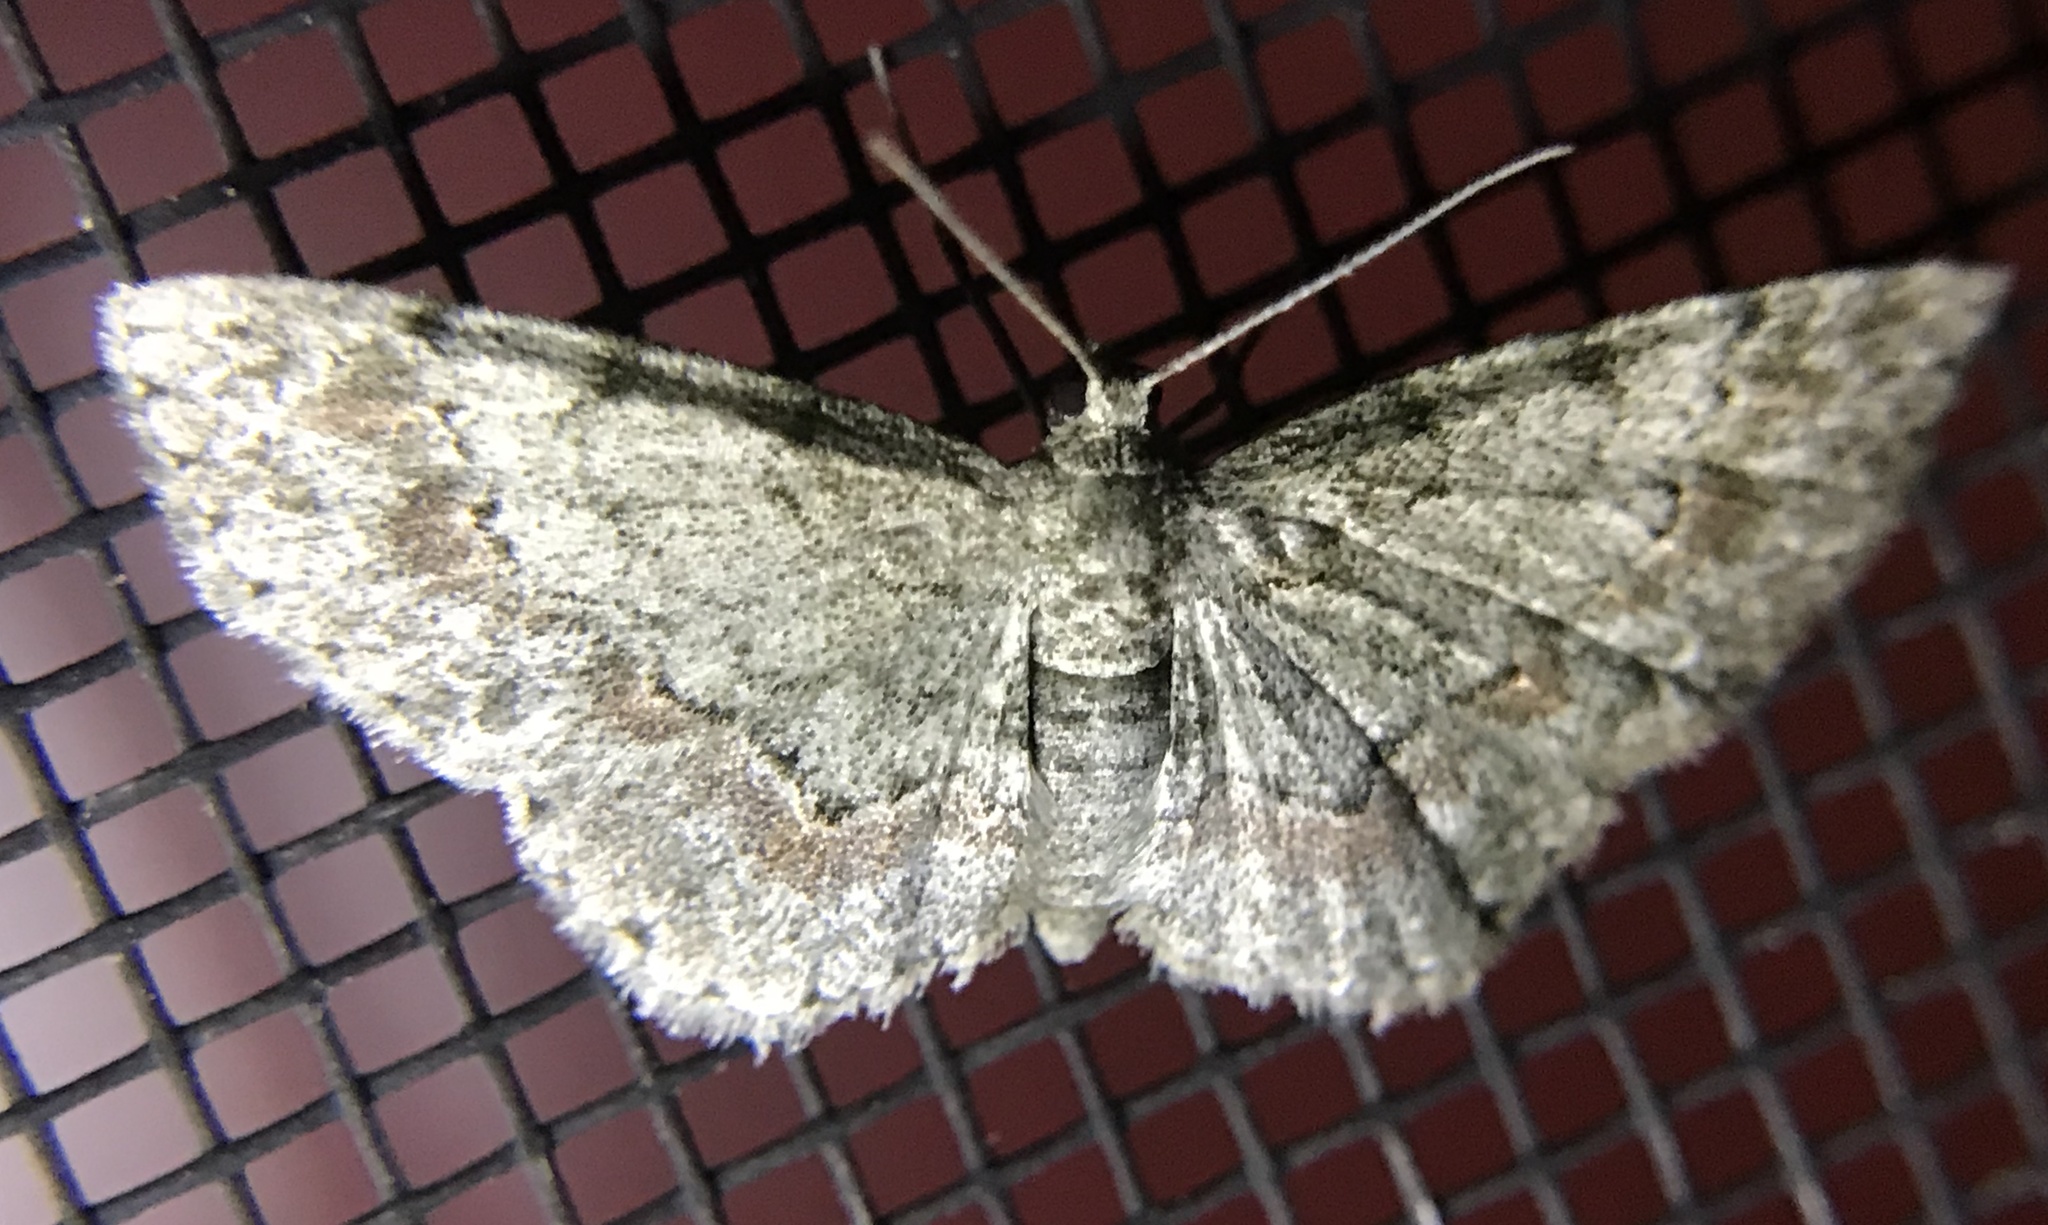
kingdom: Animalia
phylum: Arthropoda
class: Insecta
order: Lepidoptera
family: Geometridae
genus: Glenoides
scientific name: Glenoides texanaria
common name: Texas gray
